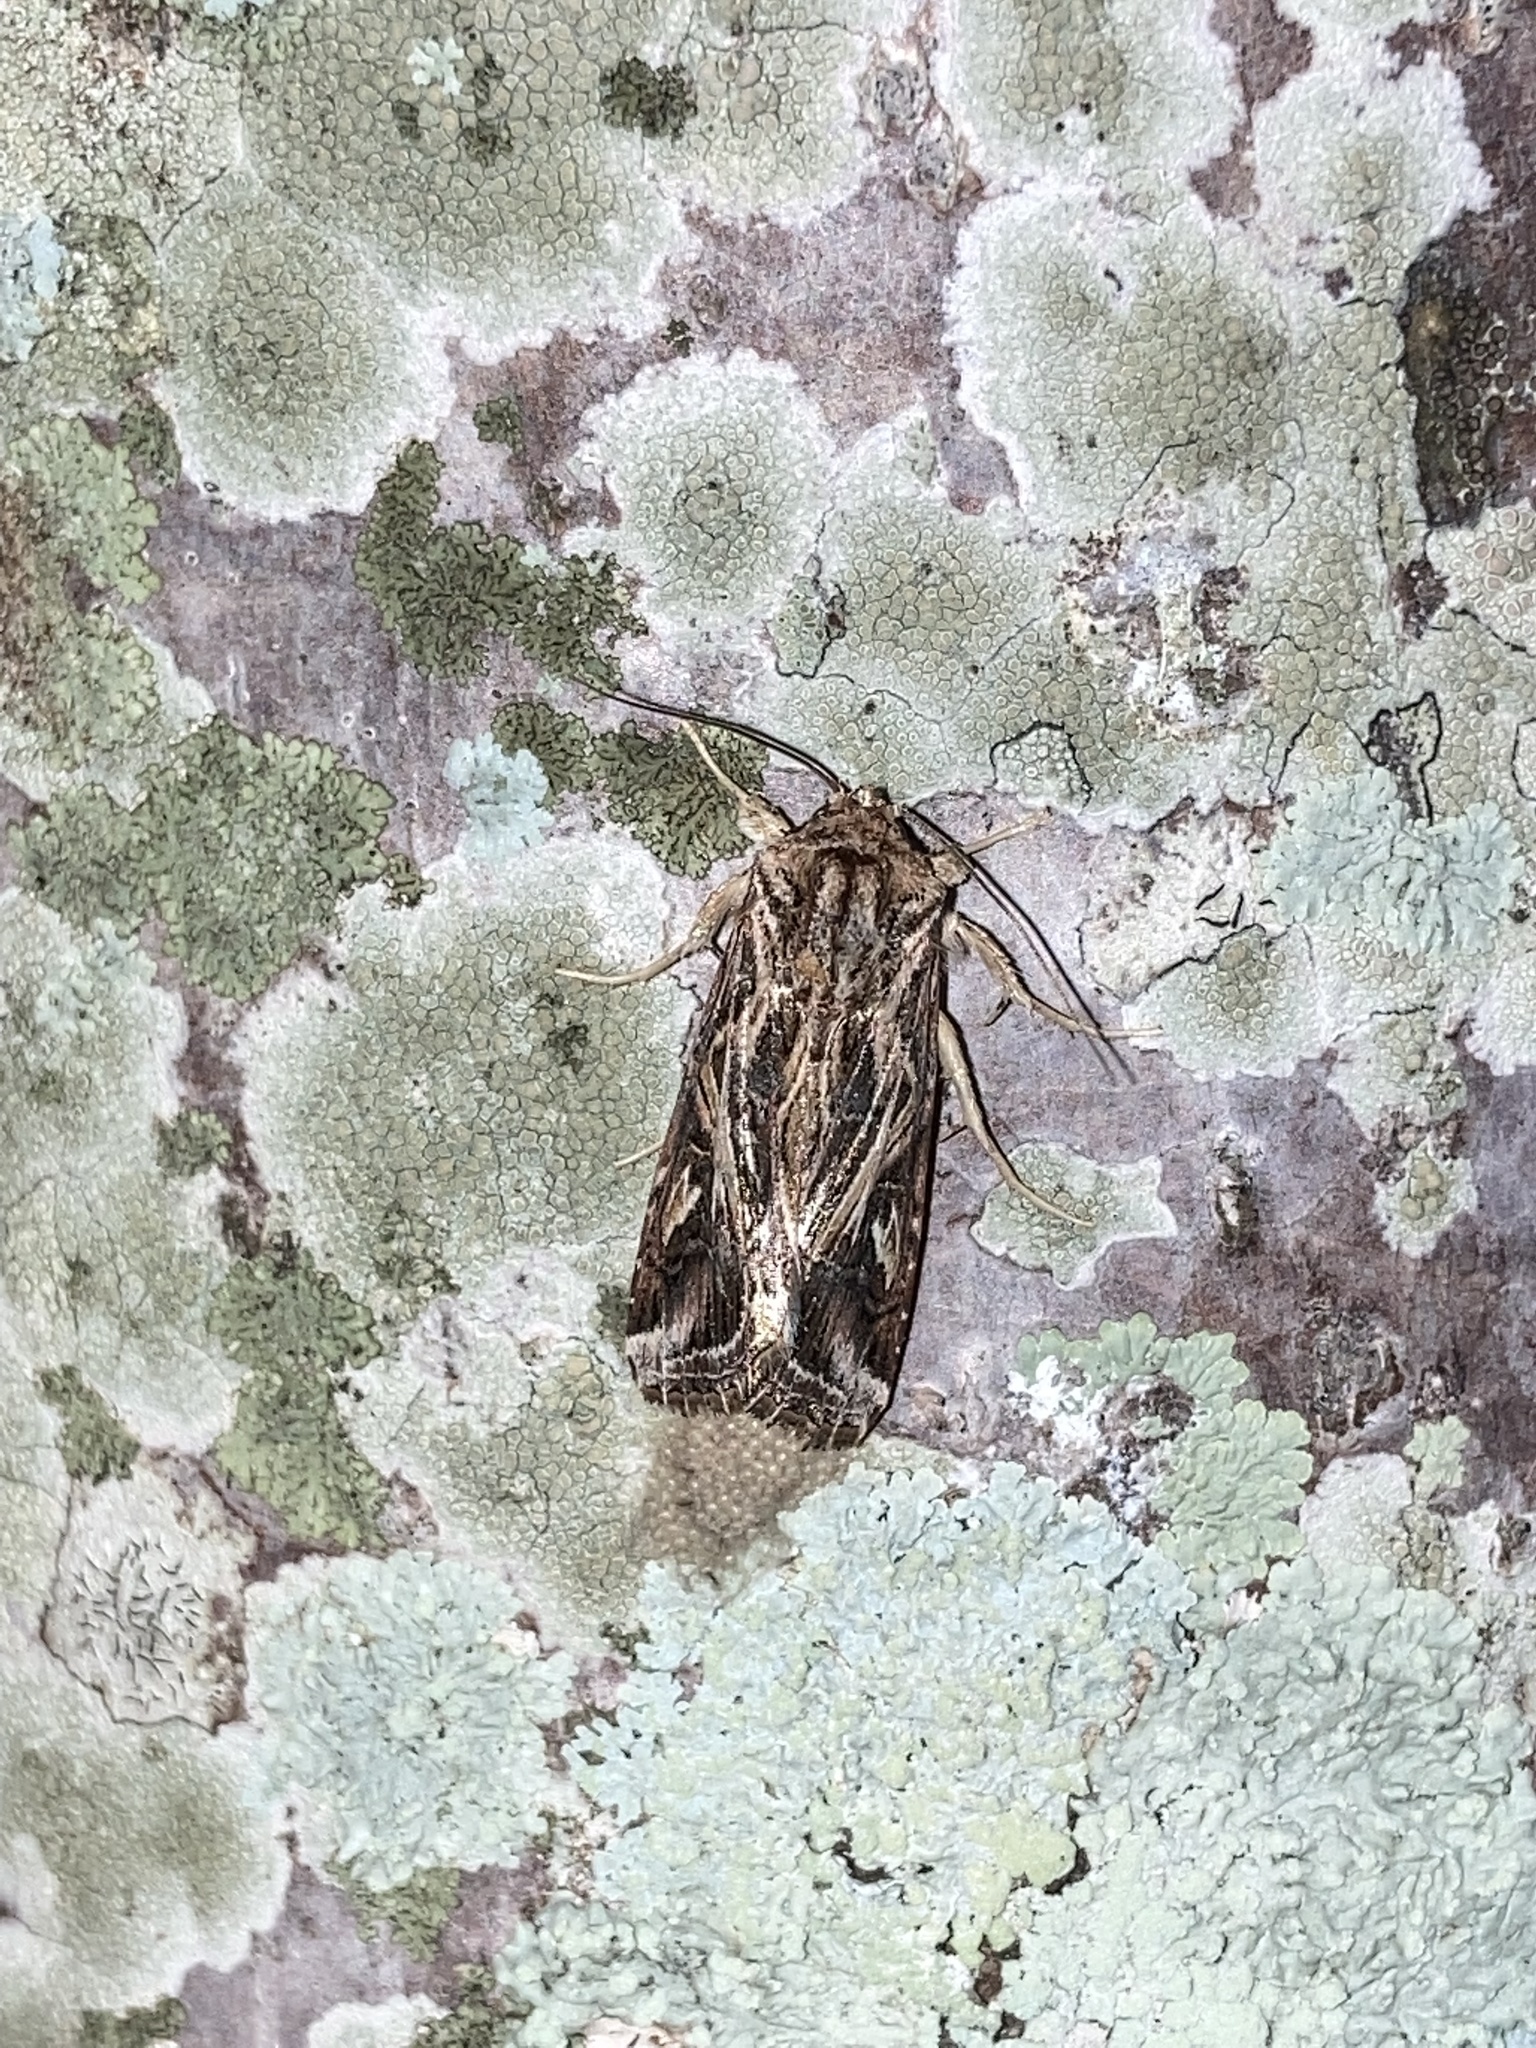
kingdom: Animalia
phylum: Arthropoda
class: Insecta
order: Lepidoptera
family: Noctuidae
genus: Spodoptera
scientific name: Spodoptera pulchella
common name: Caribbean armyworm moth
